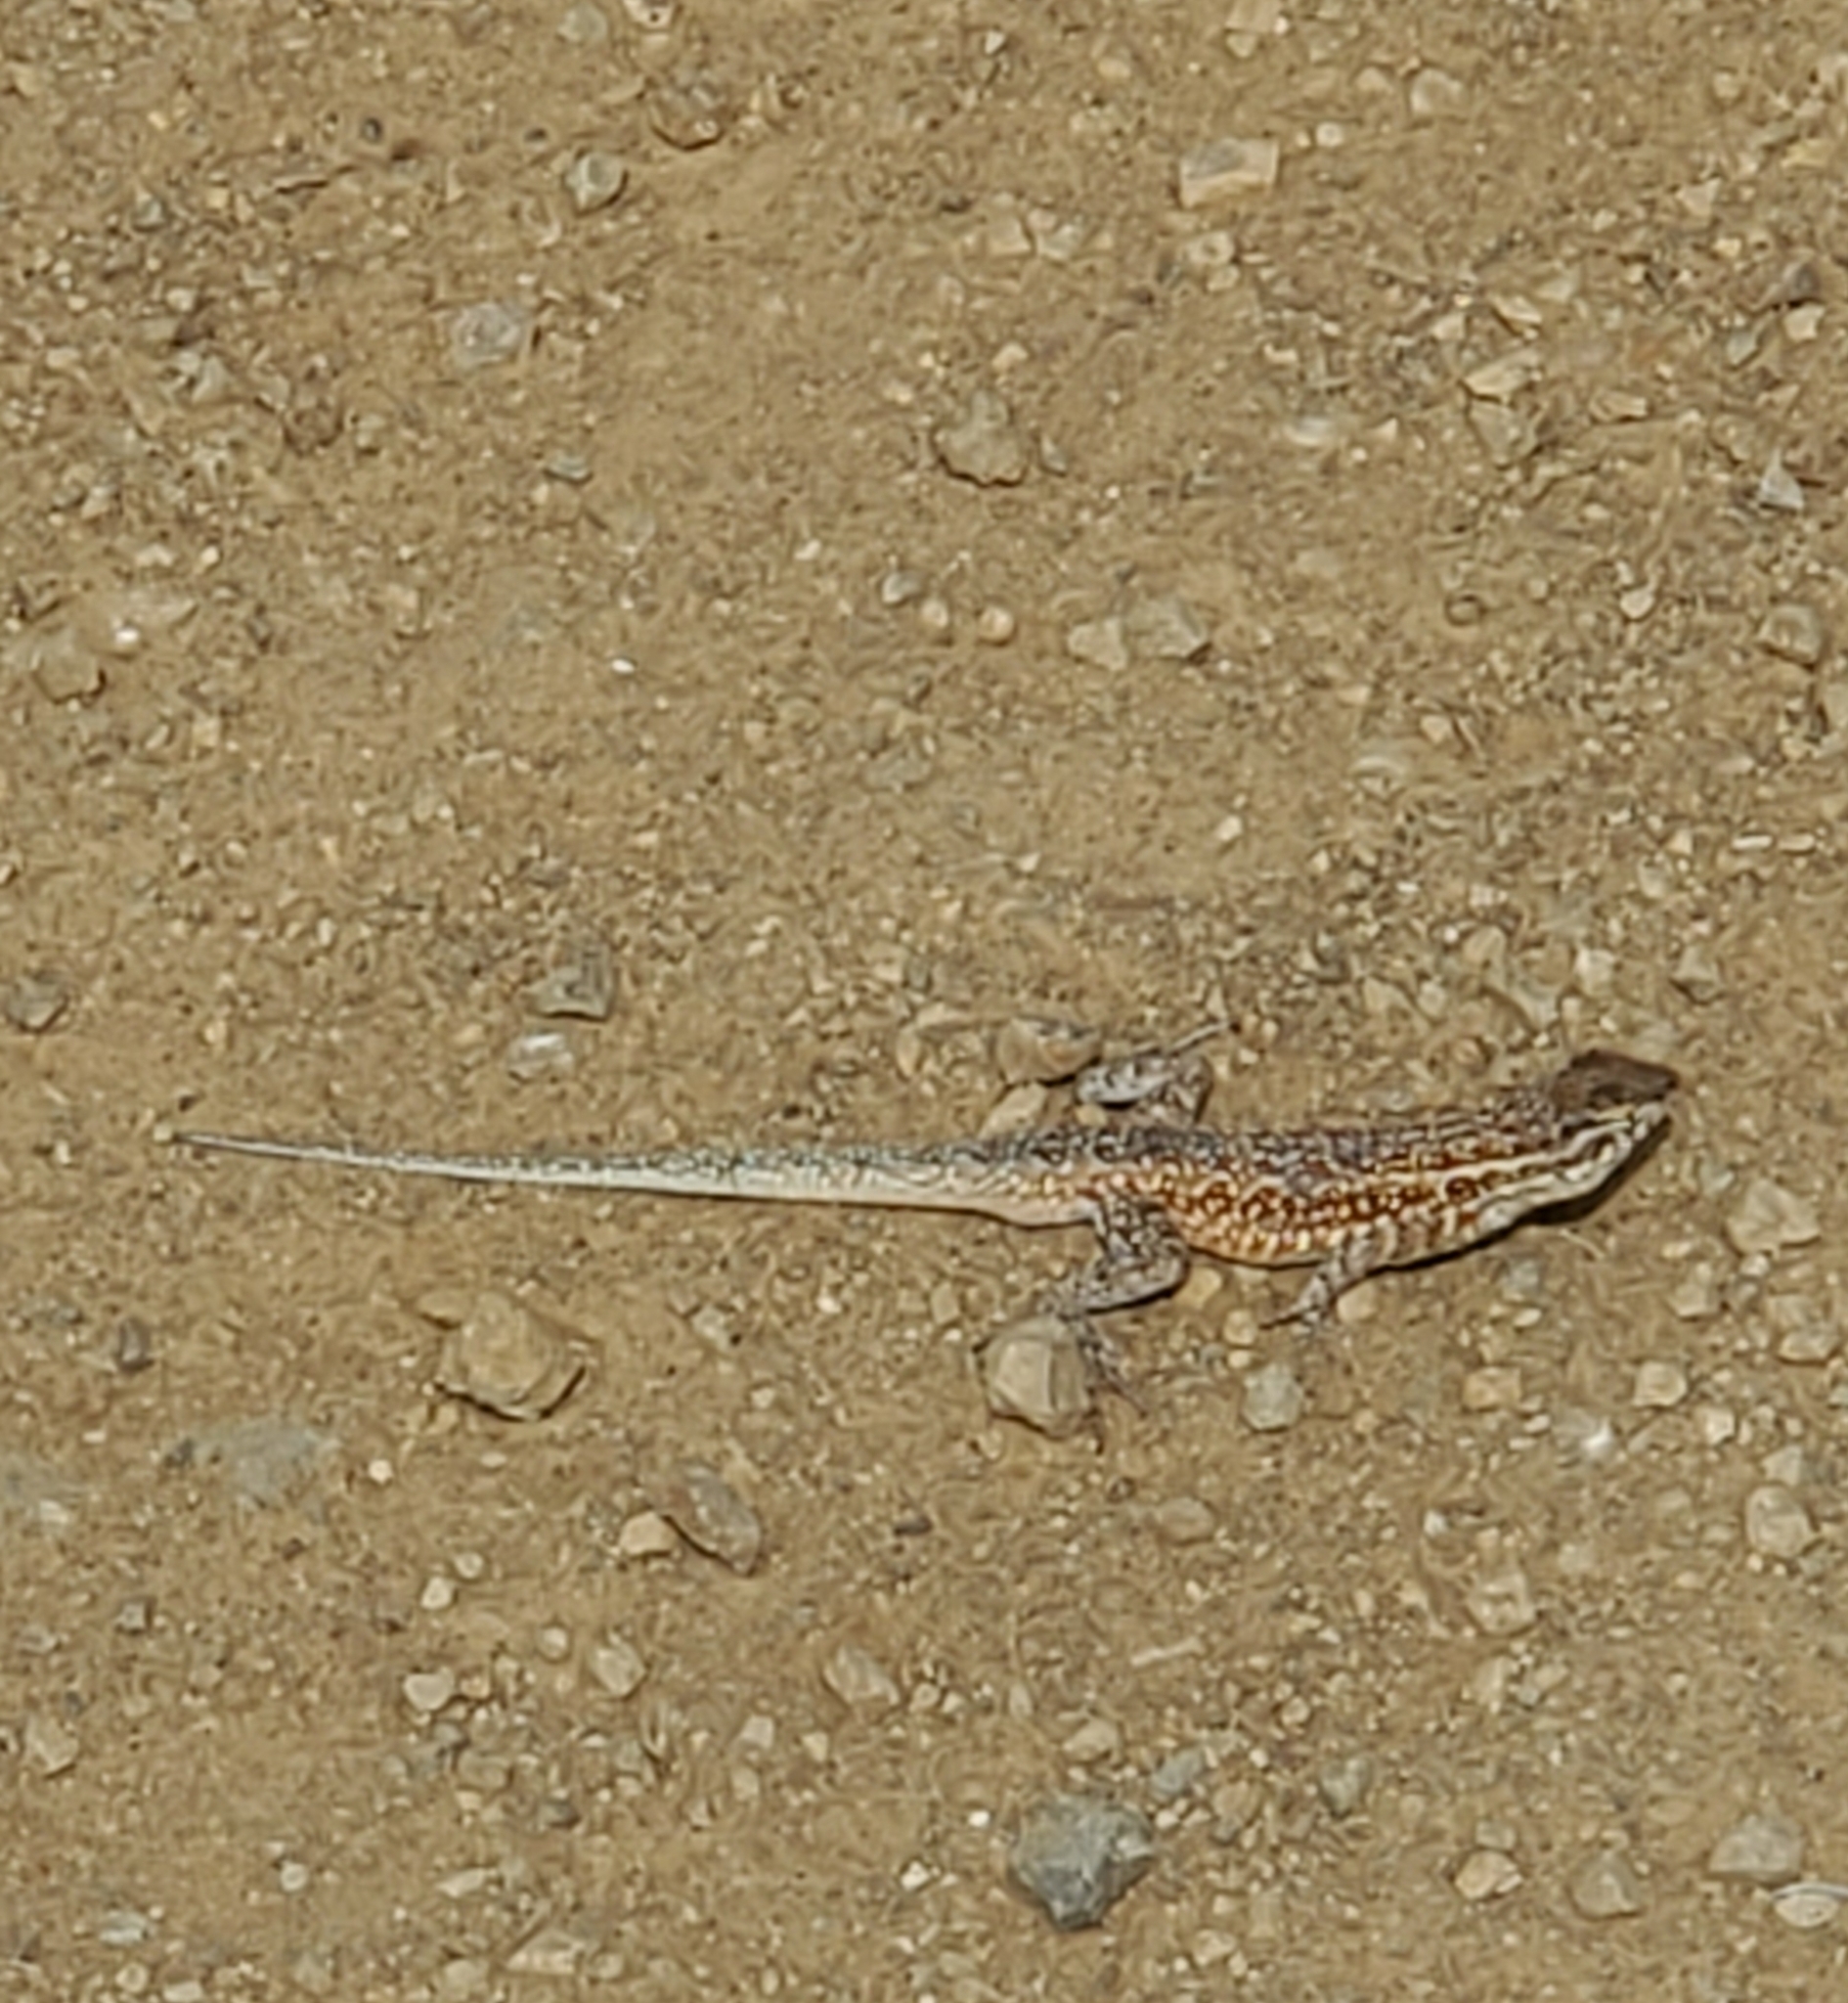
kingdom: Animalia
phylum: Chordata
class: Squamata
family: Phrynosomatidae
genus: Uta
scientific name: Uta stansburiana
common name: Side-blotched lizard
